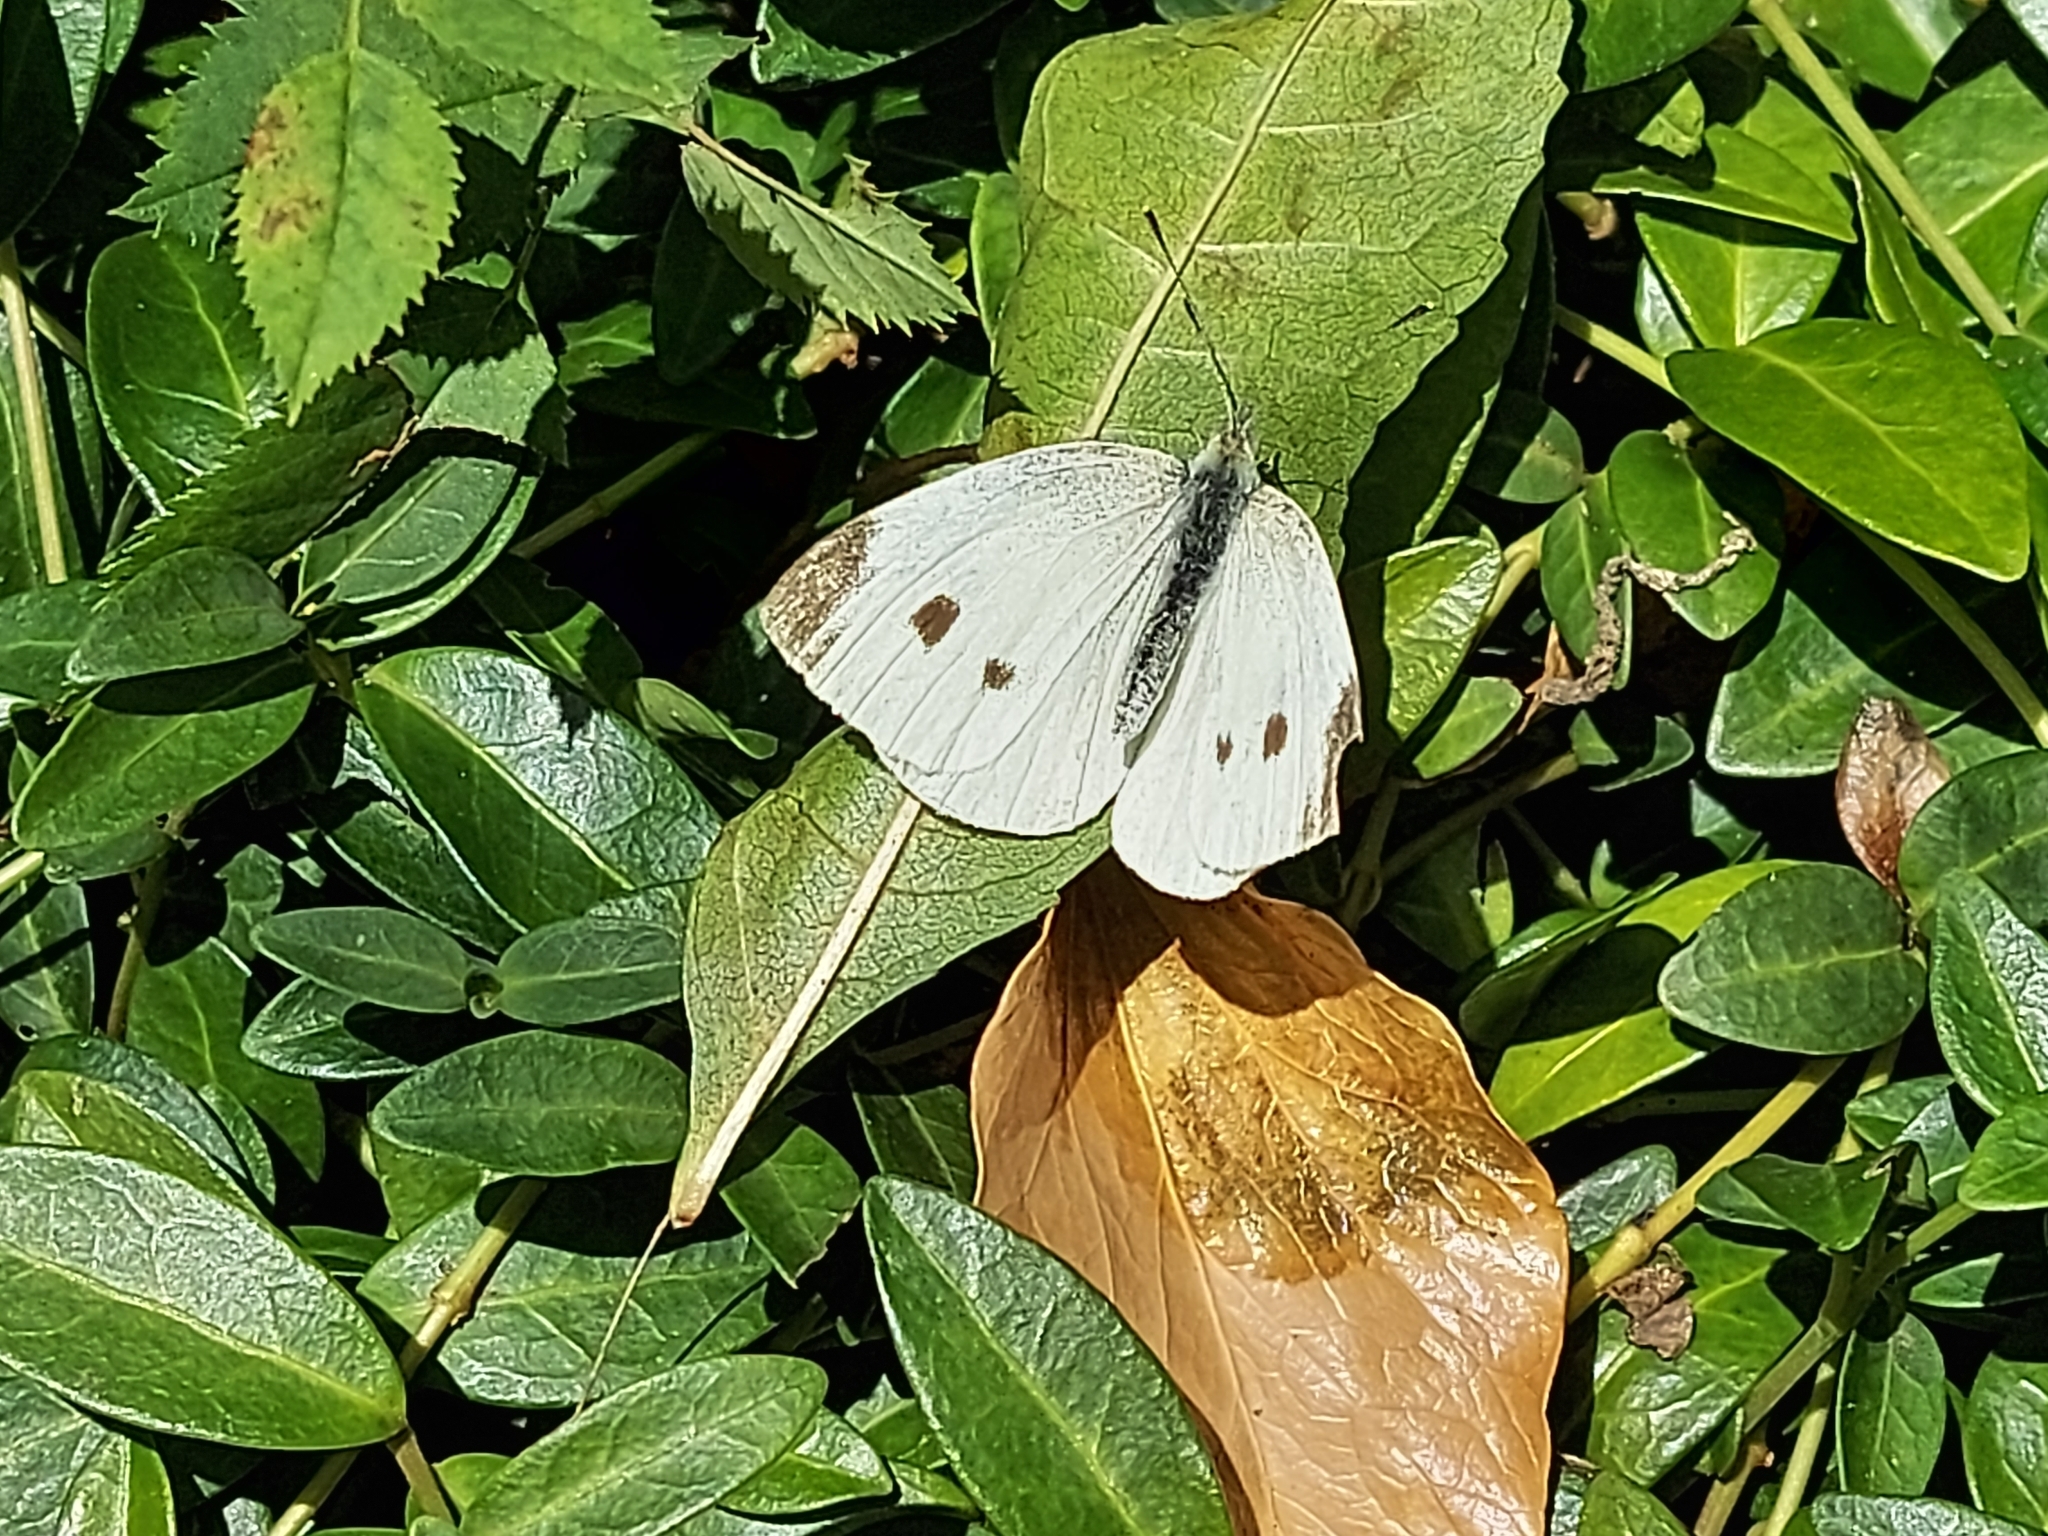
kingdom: Animalia
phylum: Arthropoda
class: Insecta
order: Lepidoptera
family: Pieridae
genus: Pieris
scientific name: Pieris rapae
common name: Small white
